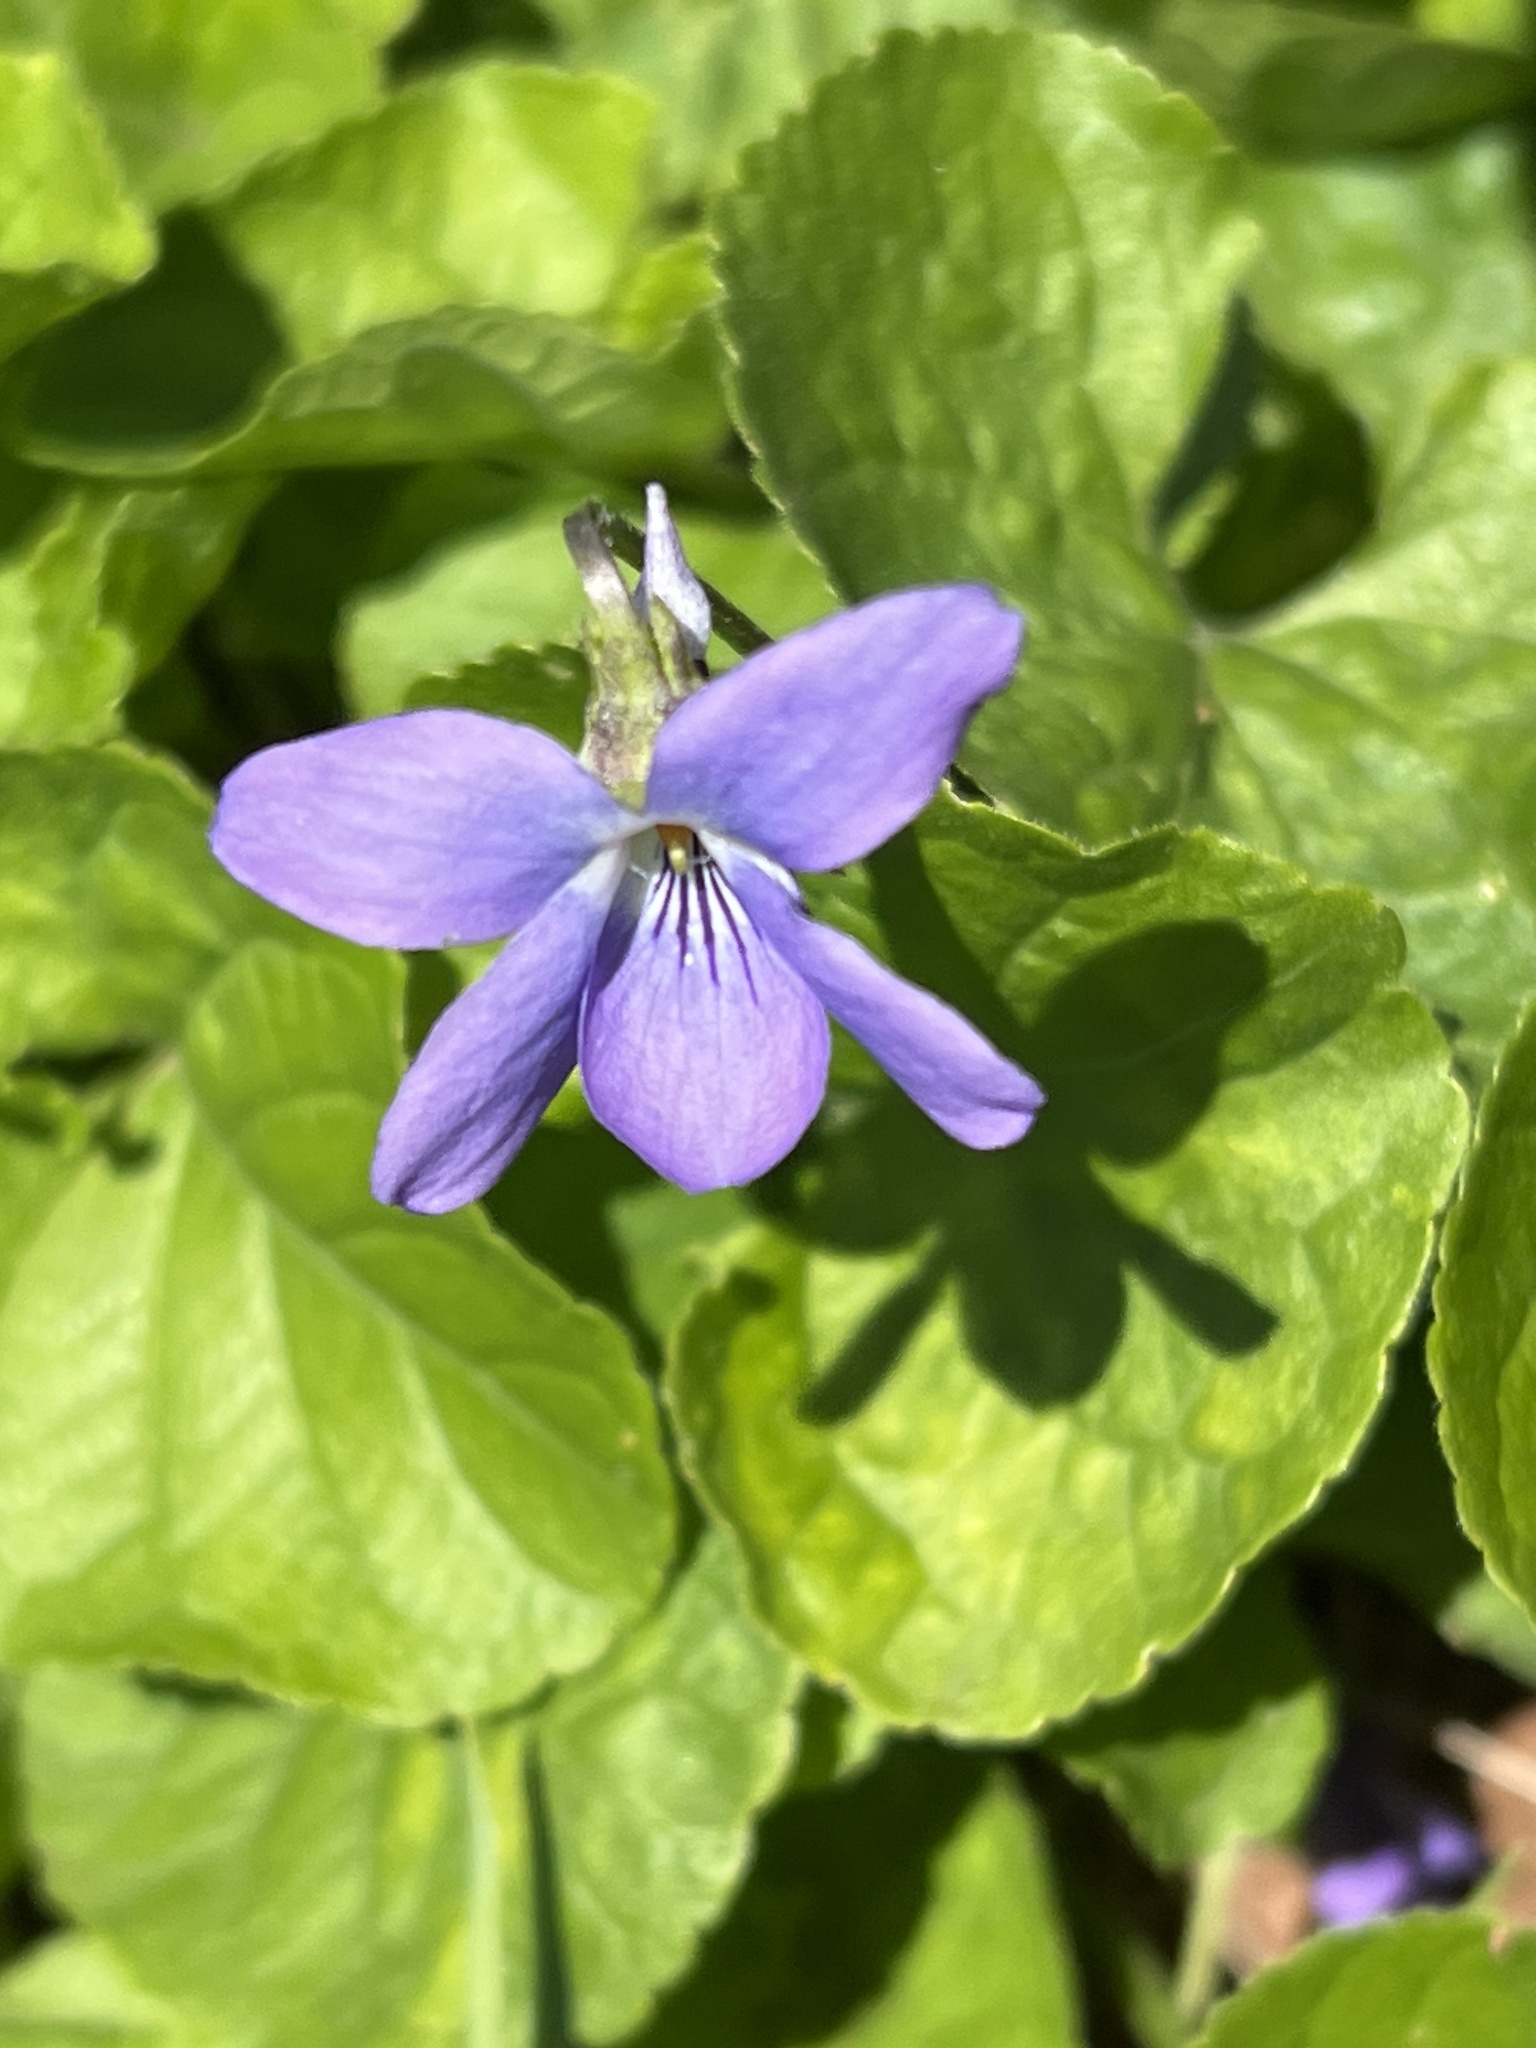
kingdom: Plantae
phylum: Tracheophyta
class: Magnoliopsida
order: Malpighiales
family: Violaceae
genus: Viola
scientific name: Viola riviniana
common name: Common dog-violet
